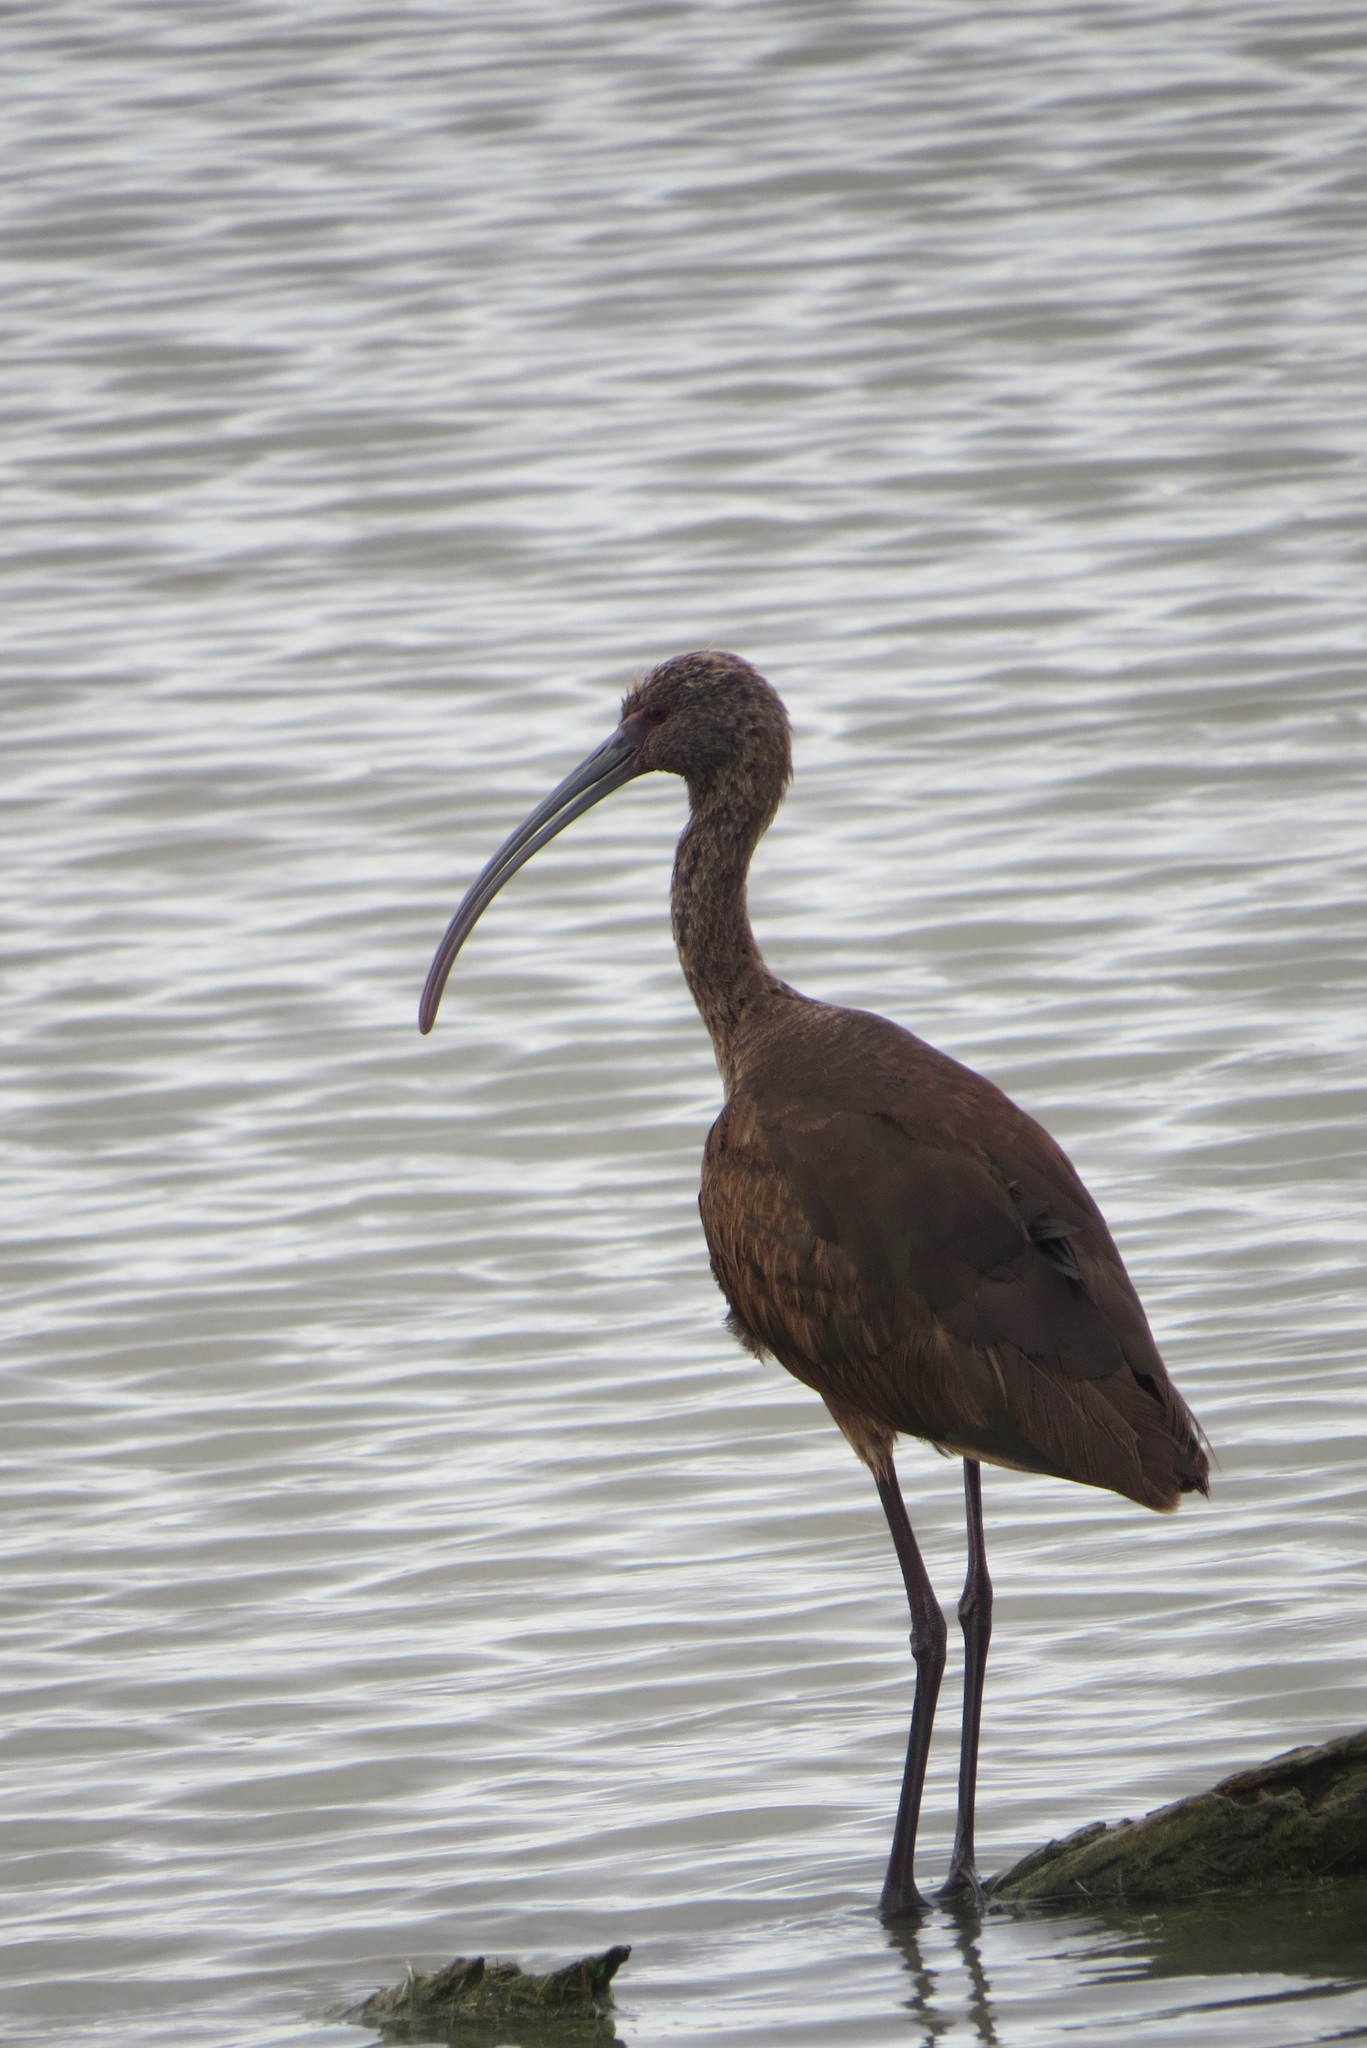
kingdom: Animalia
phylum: Chordata
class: Aves
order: Pelecaniformes
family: Threskiornithidae
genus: Plegadis
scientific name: Plegadis chihi
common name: White-faced ibis
